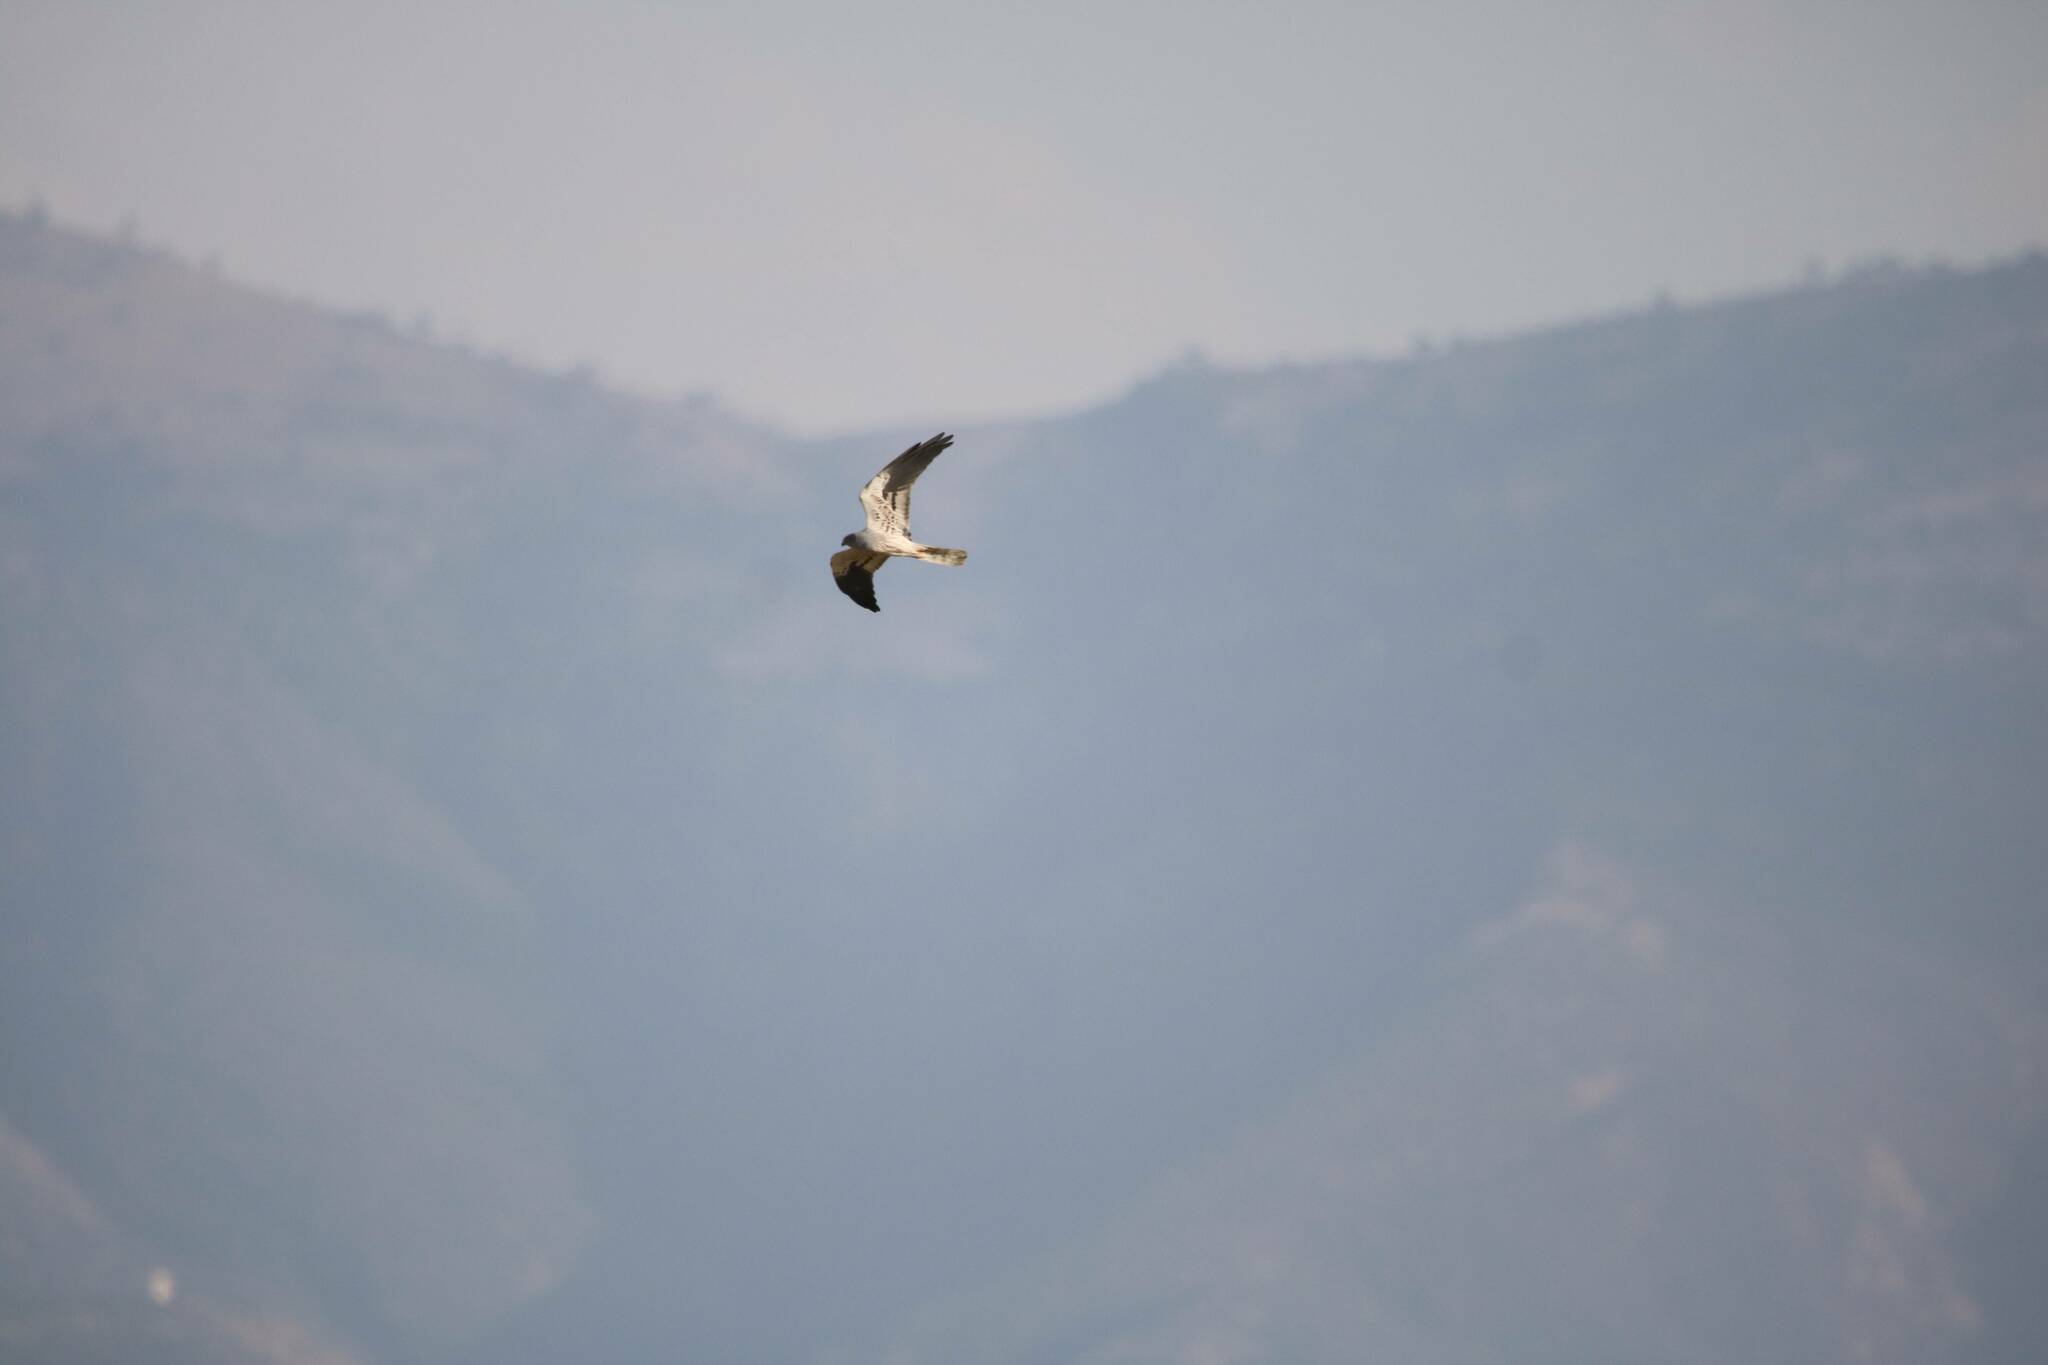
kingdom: Animalia
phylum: Chordata
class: Aves
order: Accipitriformes
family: Accipitridae
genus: Circus
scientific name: Circus pygargus
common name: Montagu's harrier
